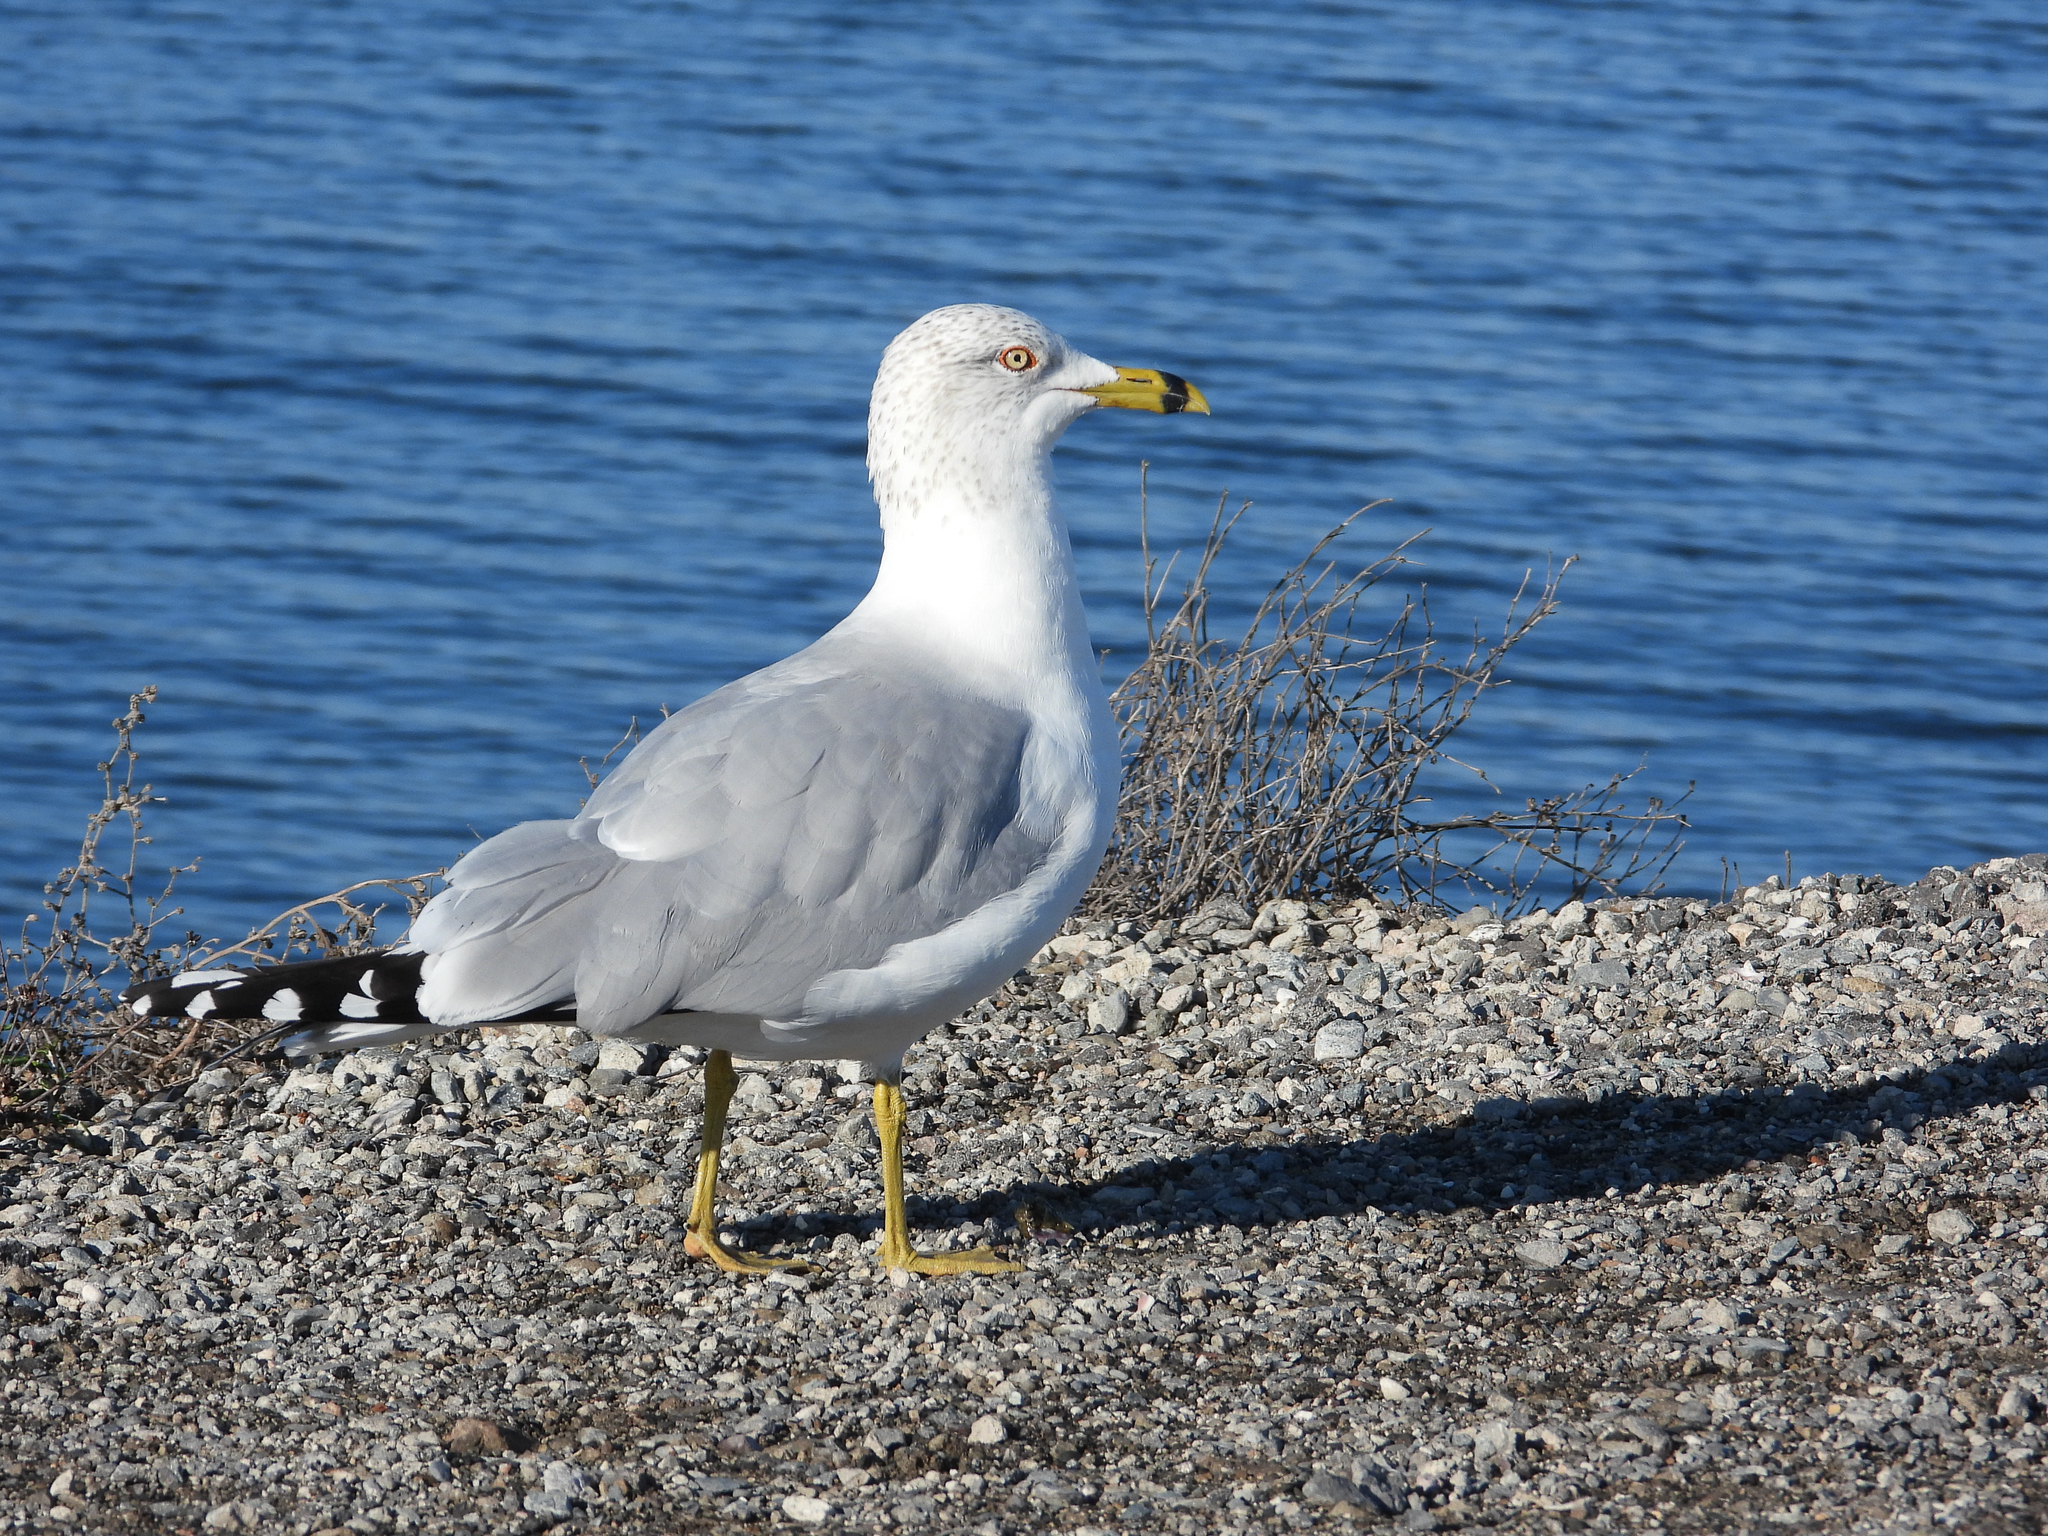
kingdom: Animalia
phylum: Chordata
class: Aves
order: Charadriiformes
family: Laridae
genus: Larus
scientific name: Larus delawarensis
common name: Ring-billed gull
